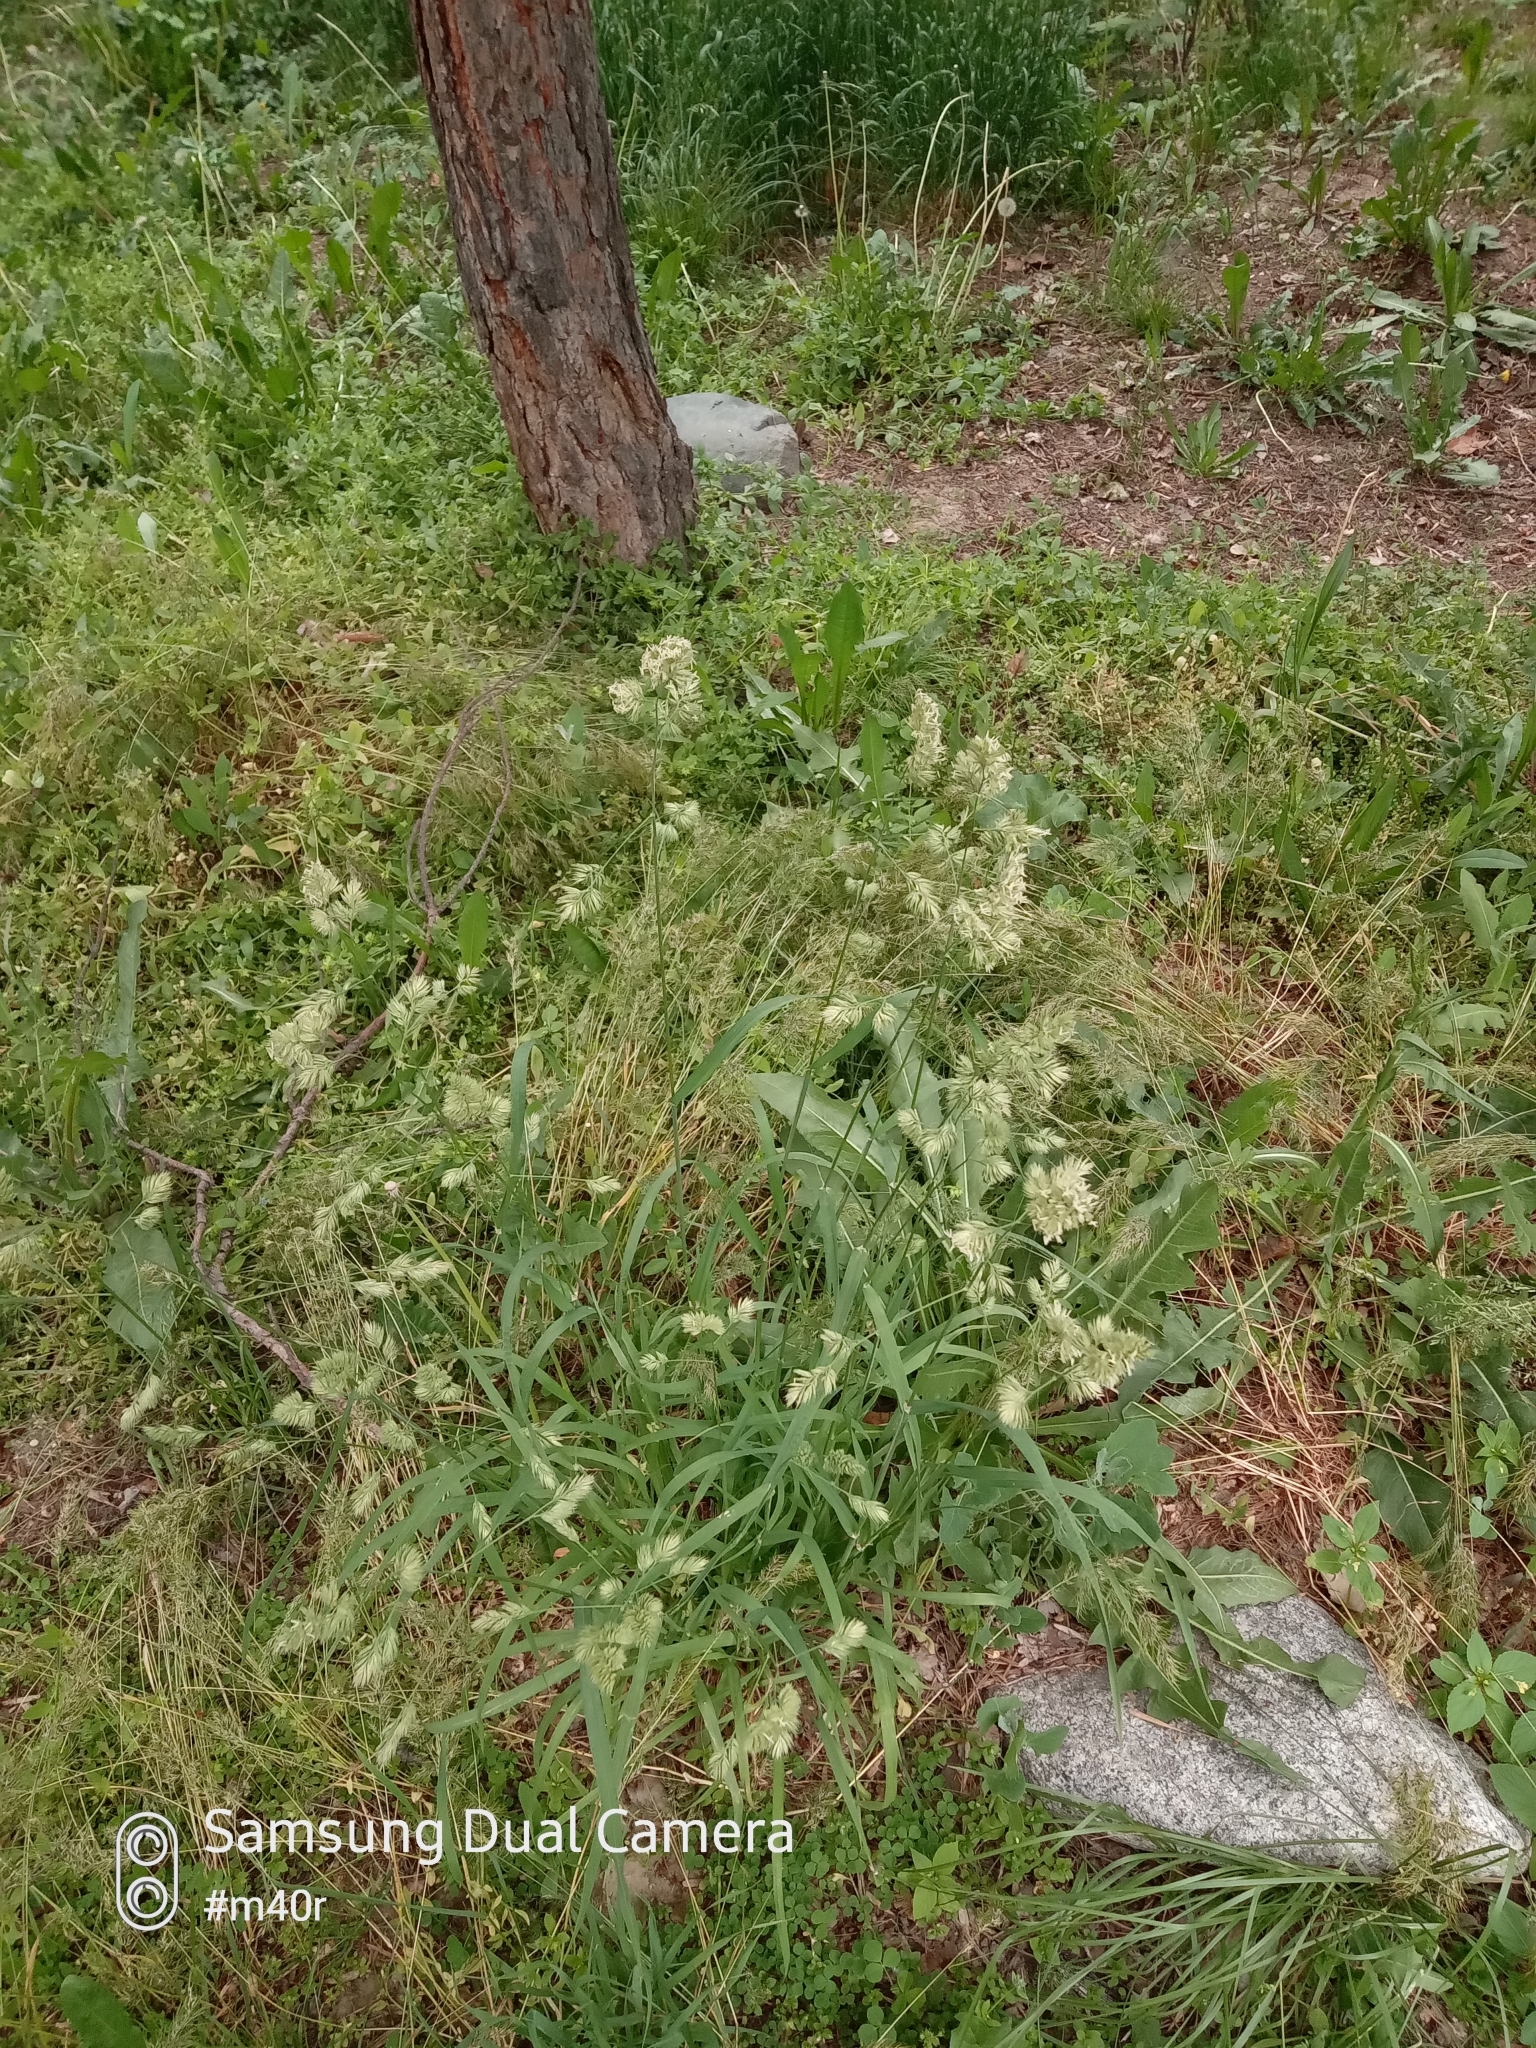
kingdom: Plantae
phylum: Tracheophyta
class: Liliopsida
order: Poales
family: Poaceae
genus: Dactylis
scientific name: Dactylis glomerata
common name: Orchardgrass
